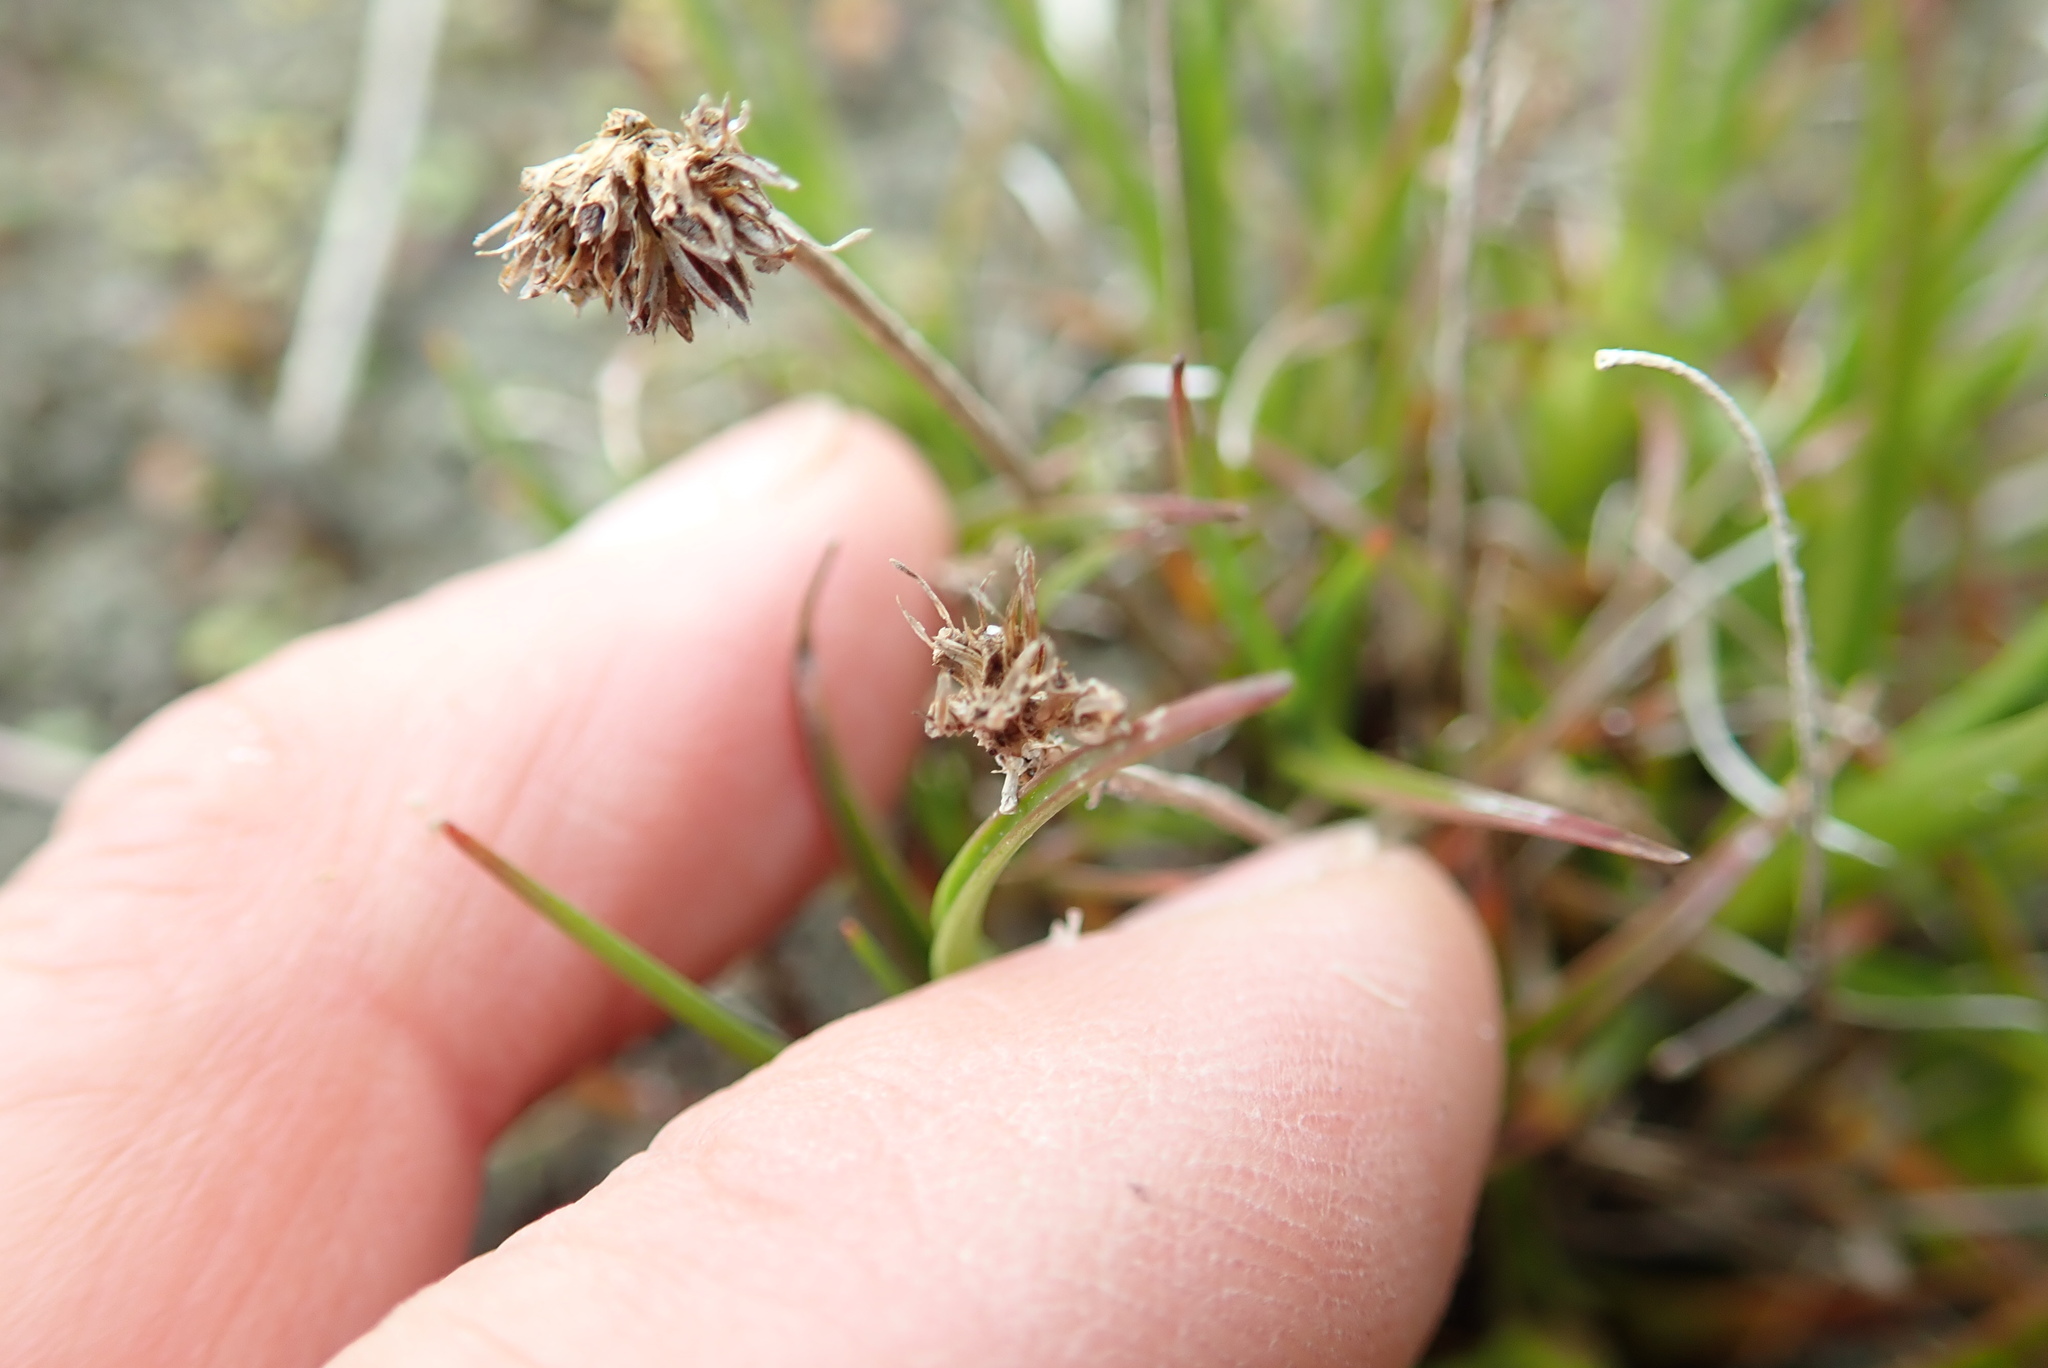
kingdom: Plantae
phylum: Tracheophyta
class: Liliopsida
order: Poales
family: Juncaceae
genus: Juncus
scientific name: Juncus caespiticius
